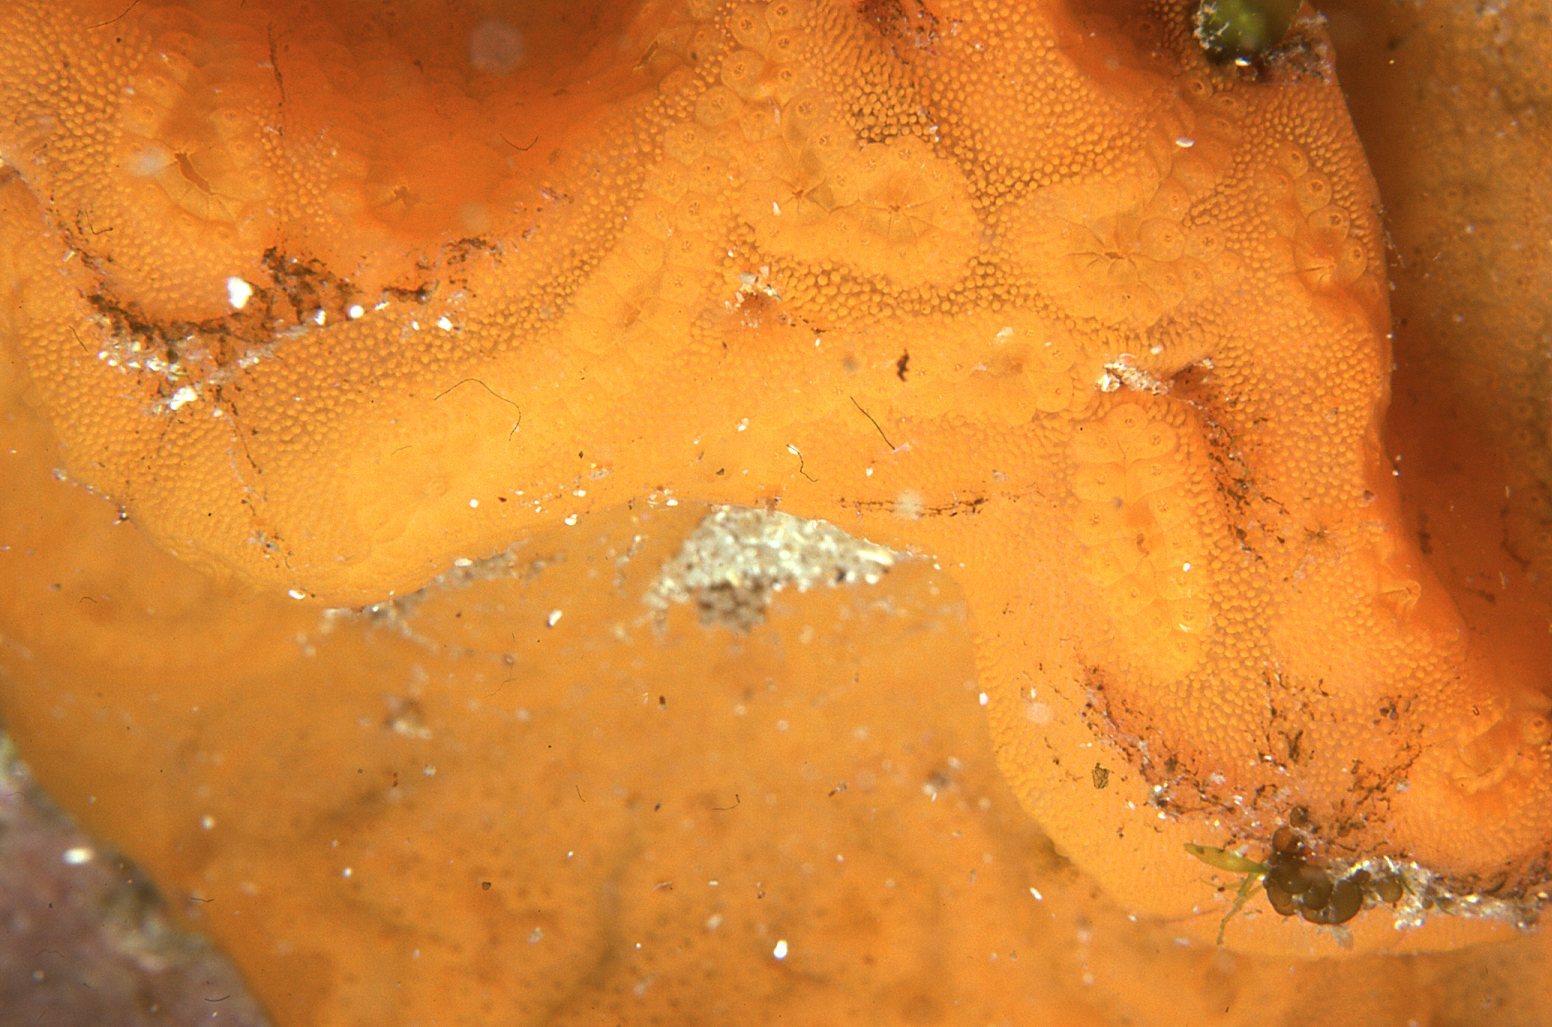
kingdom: Animalia
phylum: Chordata
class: Ascidiacea
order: Stolidobranchia
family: Styelidae
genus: Botrylloides
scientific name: Botrylloides violaceus
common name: Colonial sea squirt
